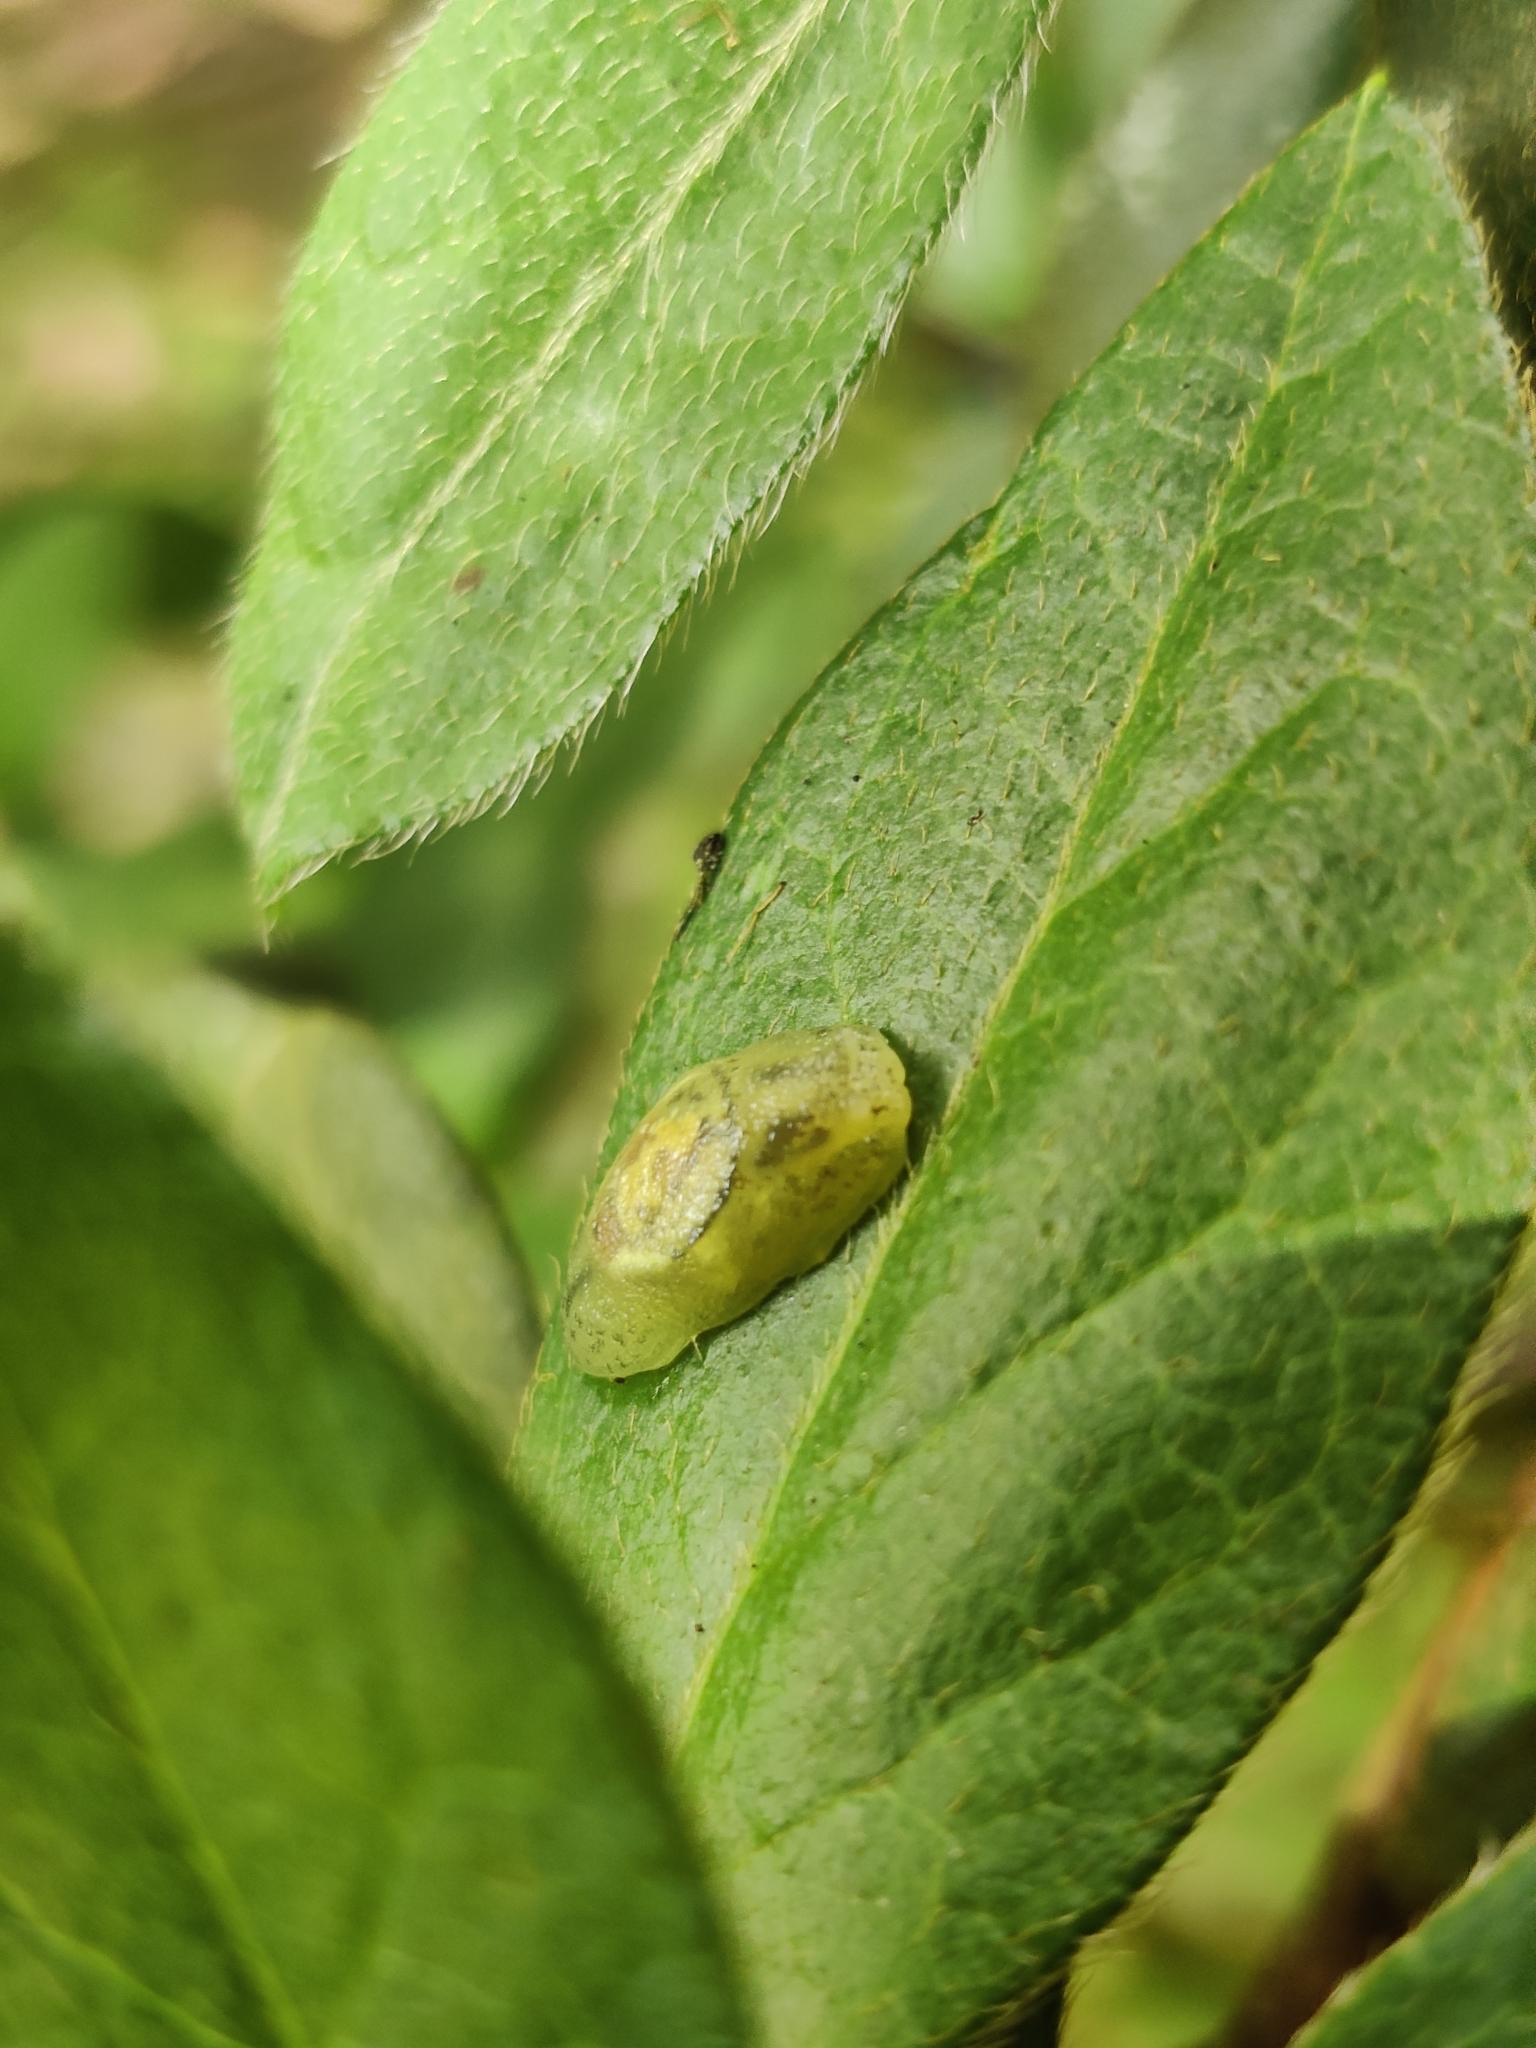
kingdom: Animalia
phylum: Mollusca
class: Gastropoda
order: Stylommatophora
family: Succineidae
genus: Hyalimax
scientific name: Hyalimax perlucidus
